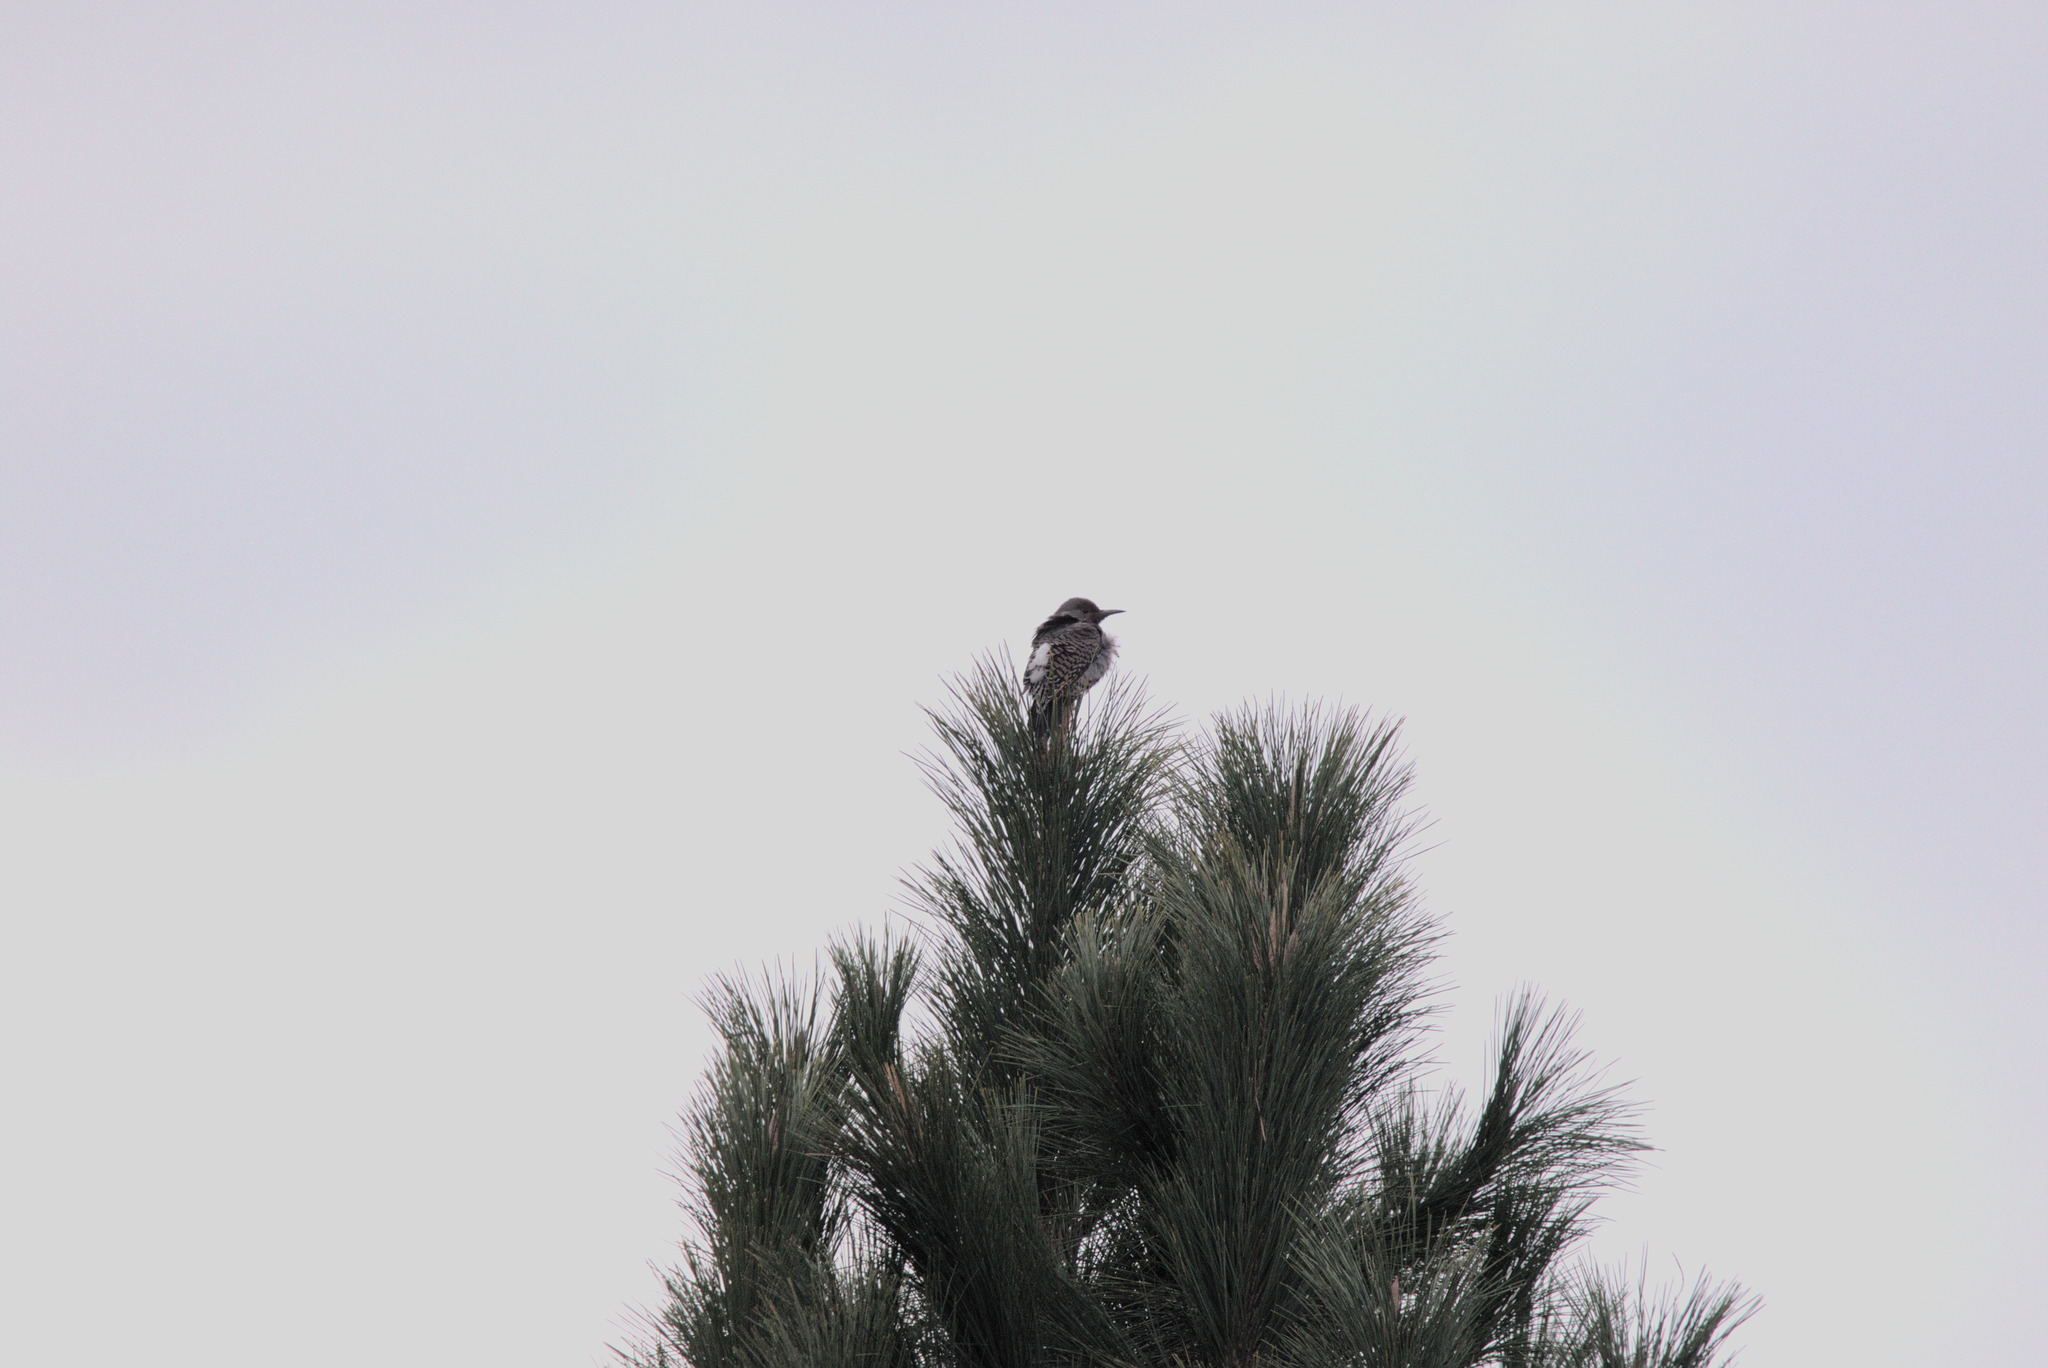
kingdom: Animalia
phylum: Chordata
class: Aves
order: Piciformes
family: Picidae
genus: Colaptes
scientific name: Colaptes auratus
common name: Northern flicker
